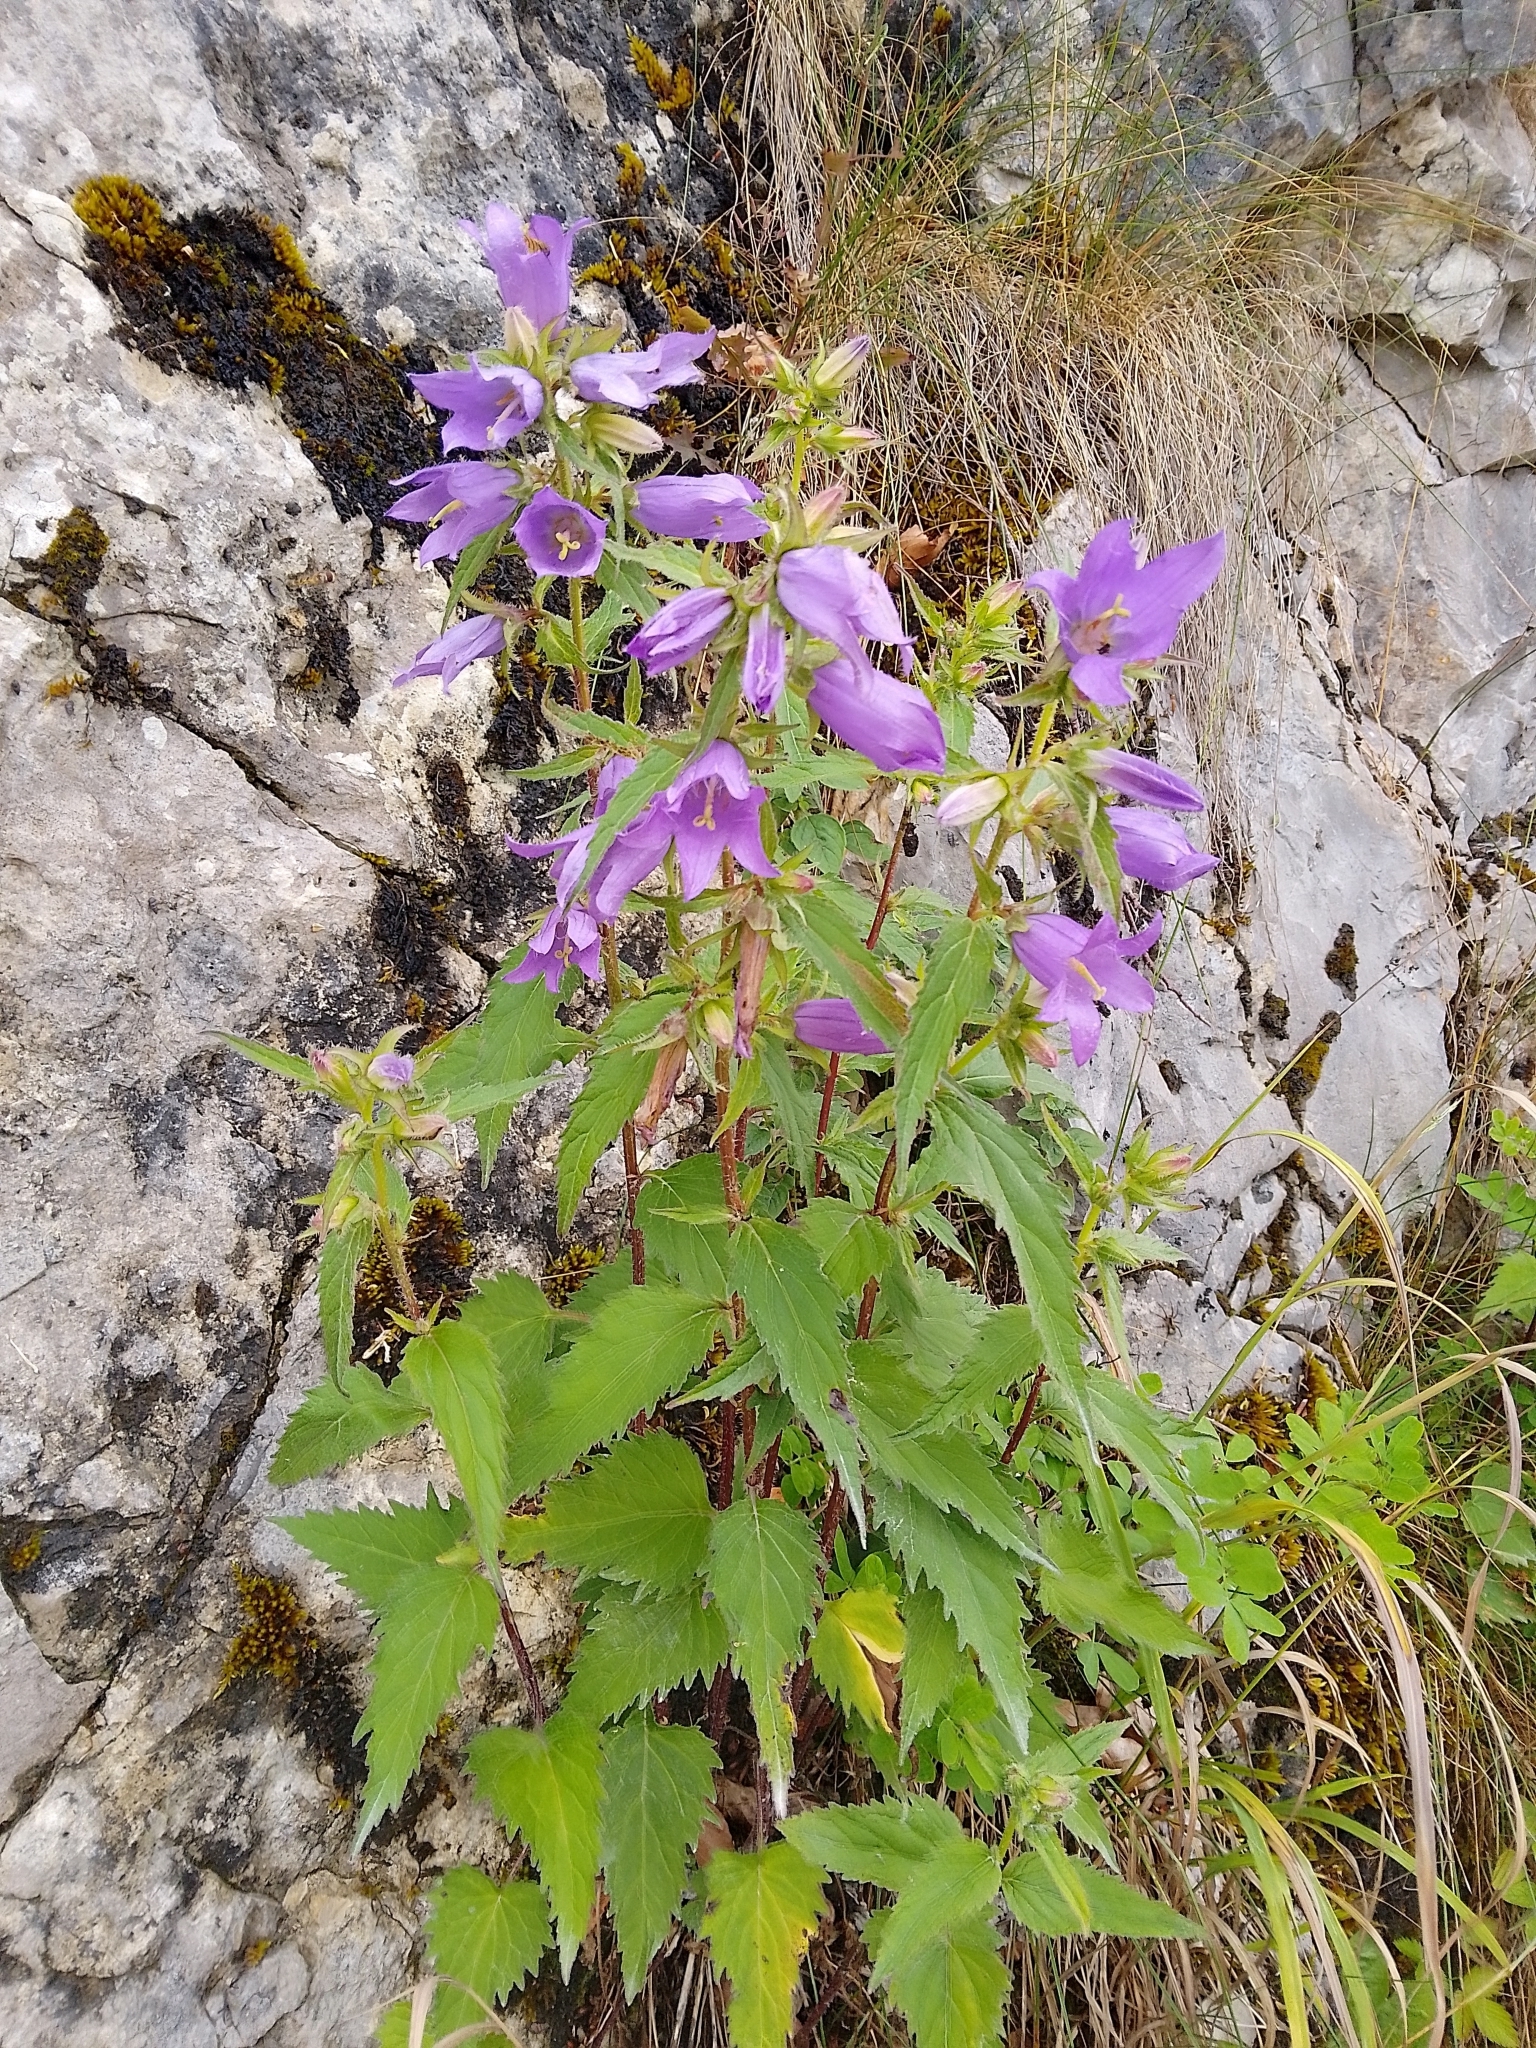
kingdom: Plantae
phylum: Tracheophyta
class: Magnoliopsida
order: Asterales
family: Campanulaceae
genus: Campanula
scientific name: Campanula trachelium
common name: Nettle-leaved bellflower
